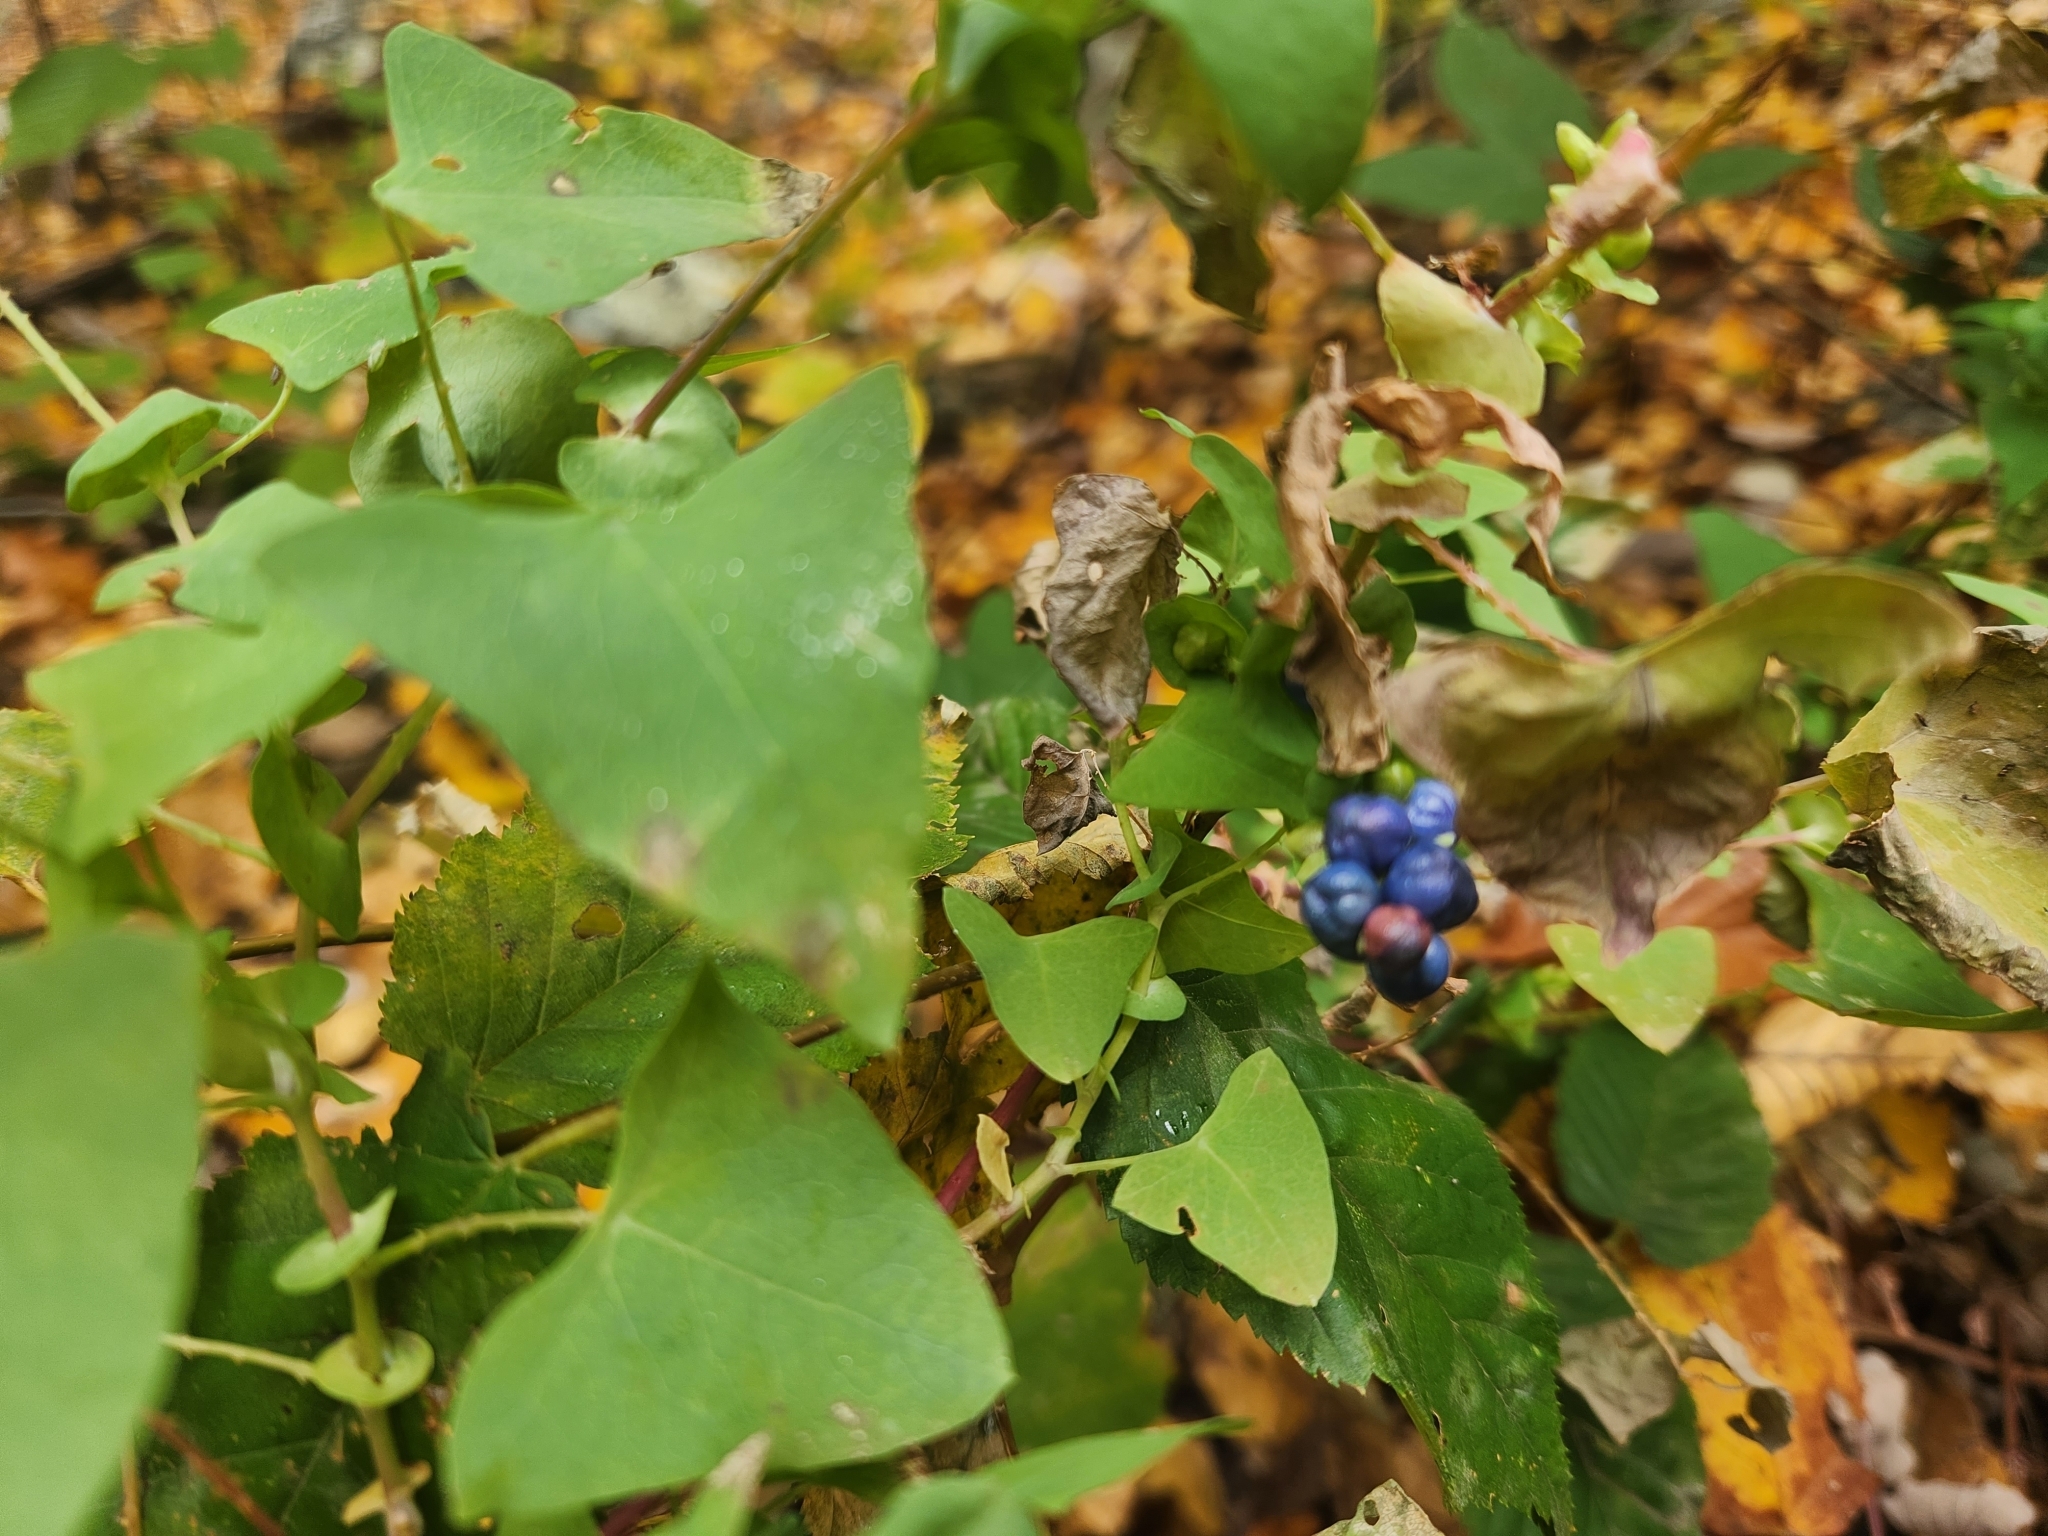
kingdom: Plantae
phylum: Tracheophyta
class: Magnoliopsida
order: Caryophyllales
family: Polygonaceae
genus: Persicaria
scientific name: Persicaria perfoliata
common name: Asiatic tearthumb
